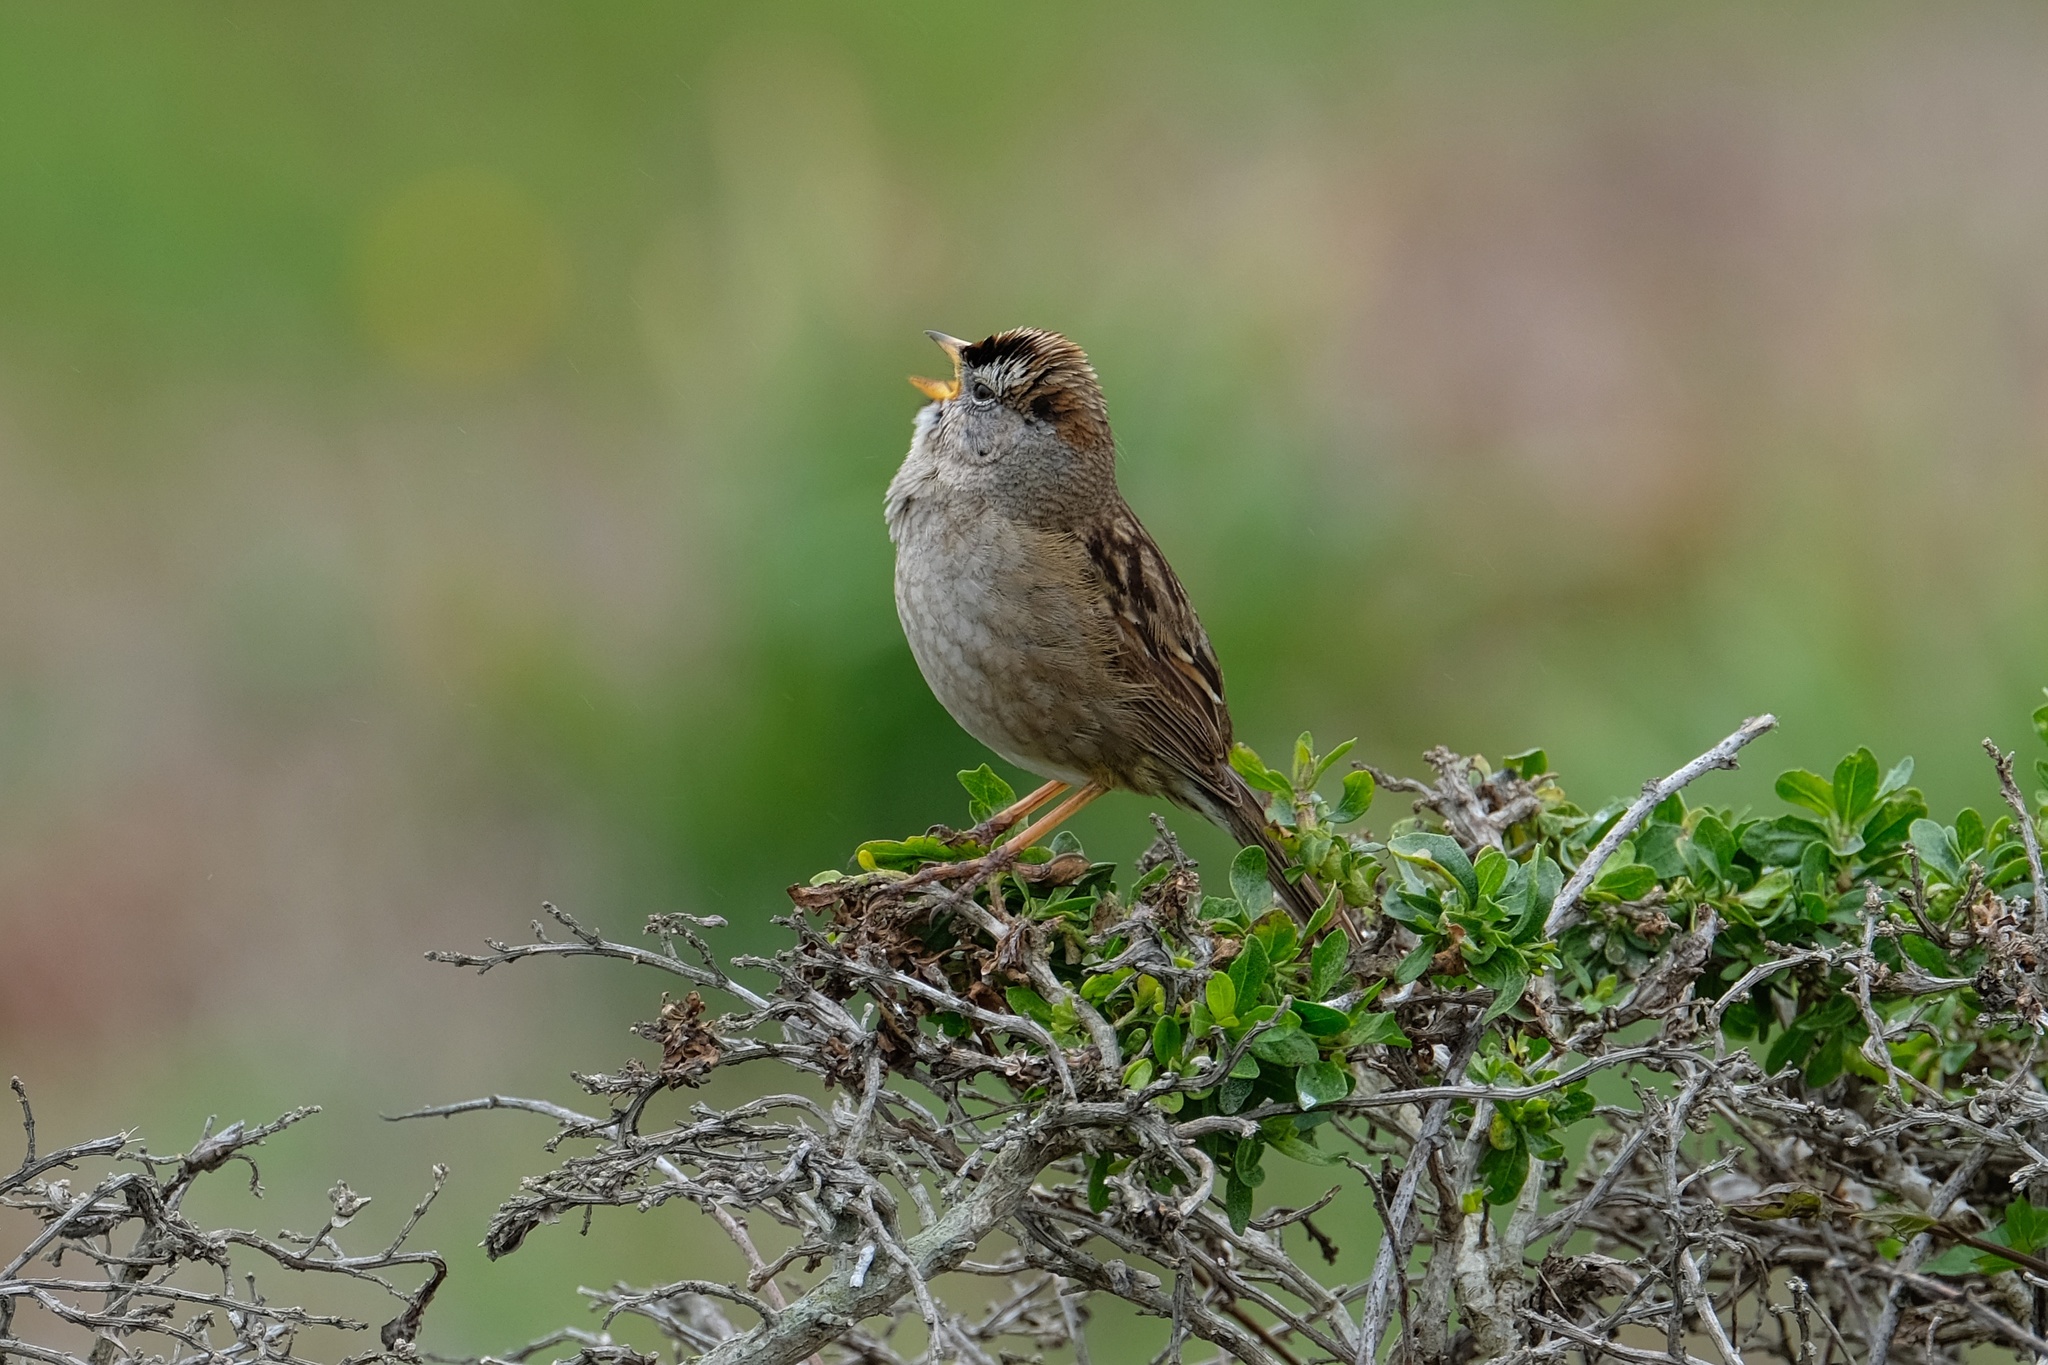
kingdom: Animalia
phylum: Chordata
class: Aves
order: Passeriformes
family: Passerellidae
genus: Zonotrichia
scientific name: Zonotrichia leucophrys
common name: White-crowned sparrow
